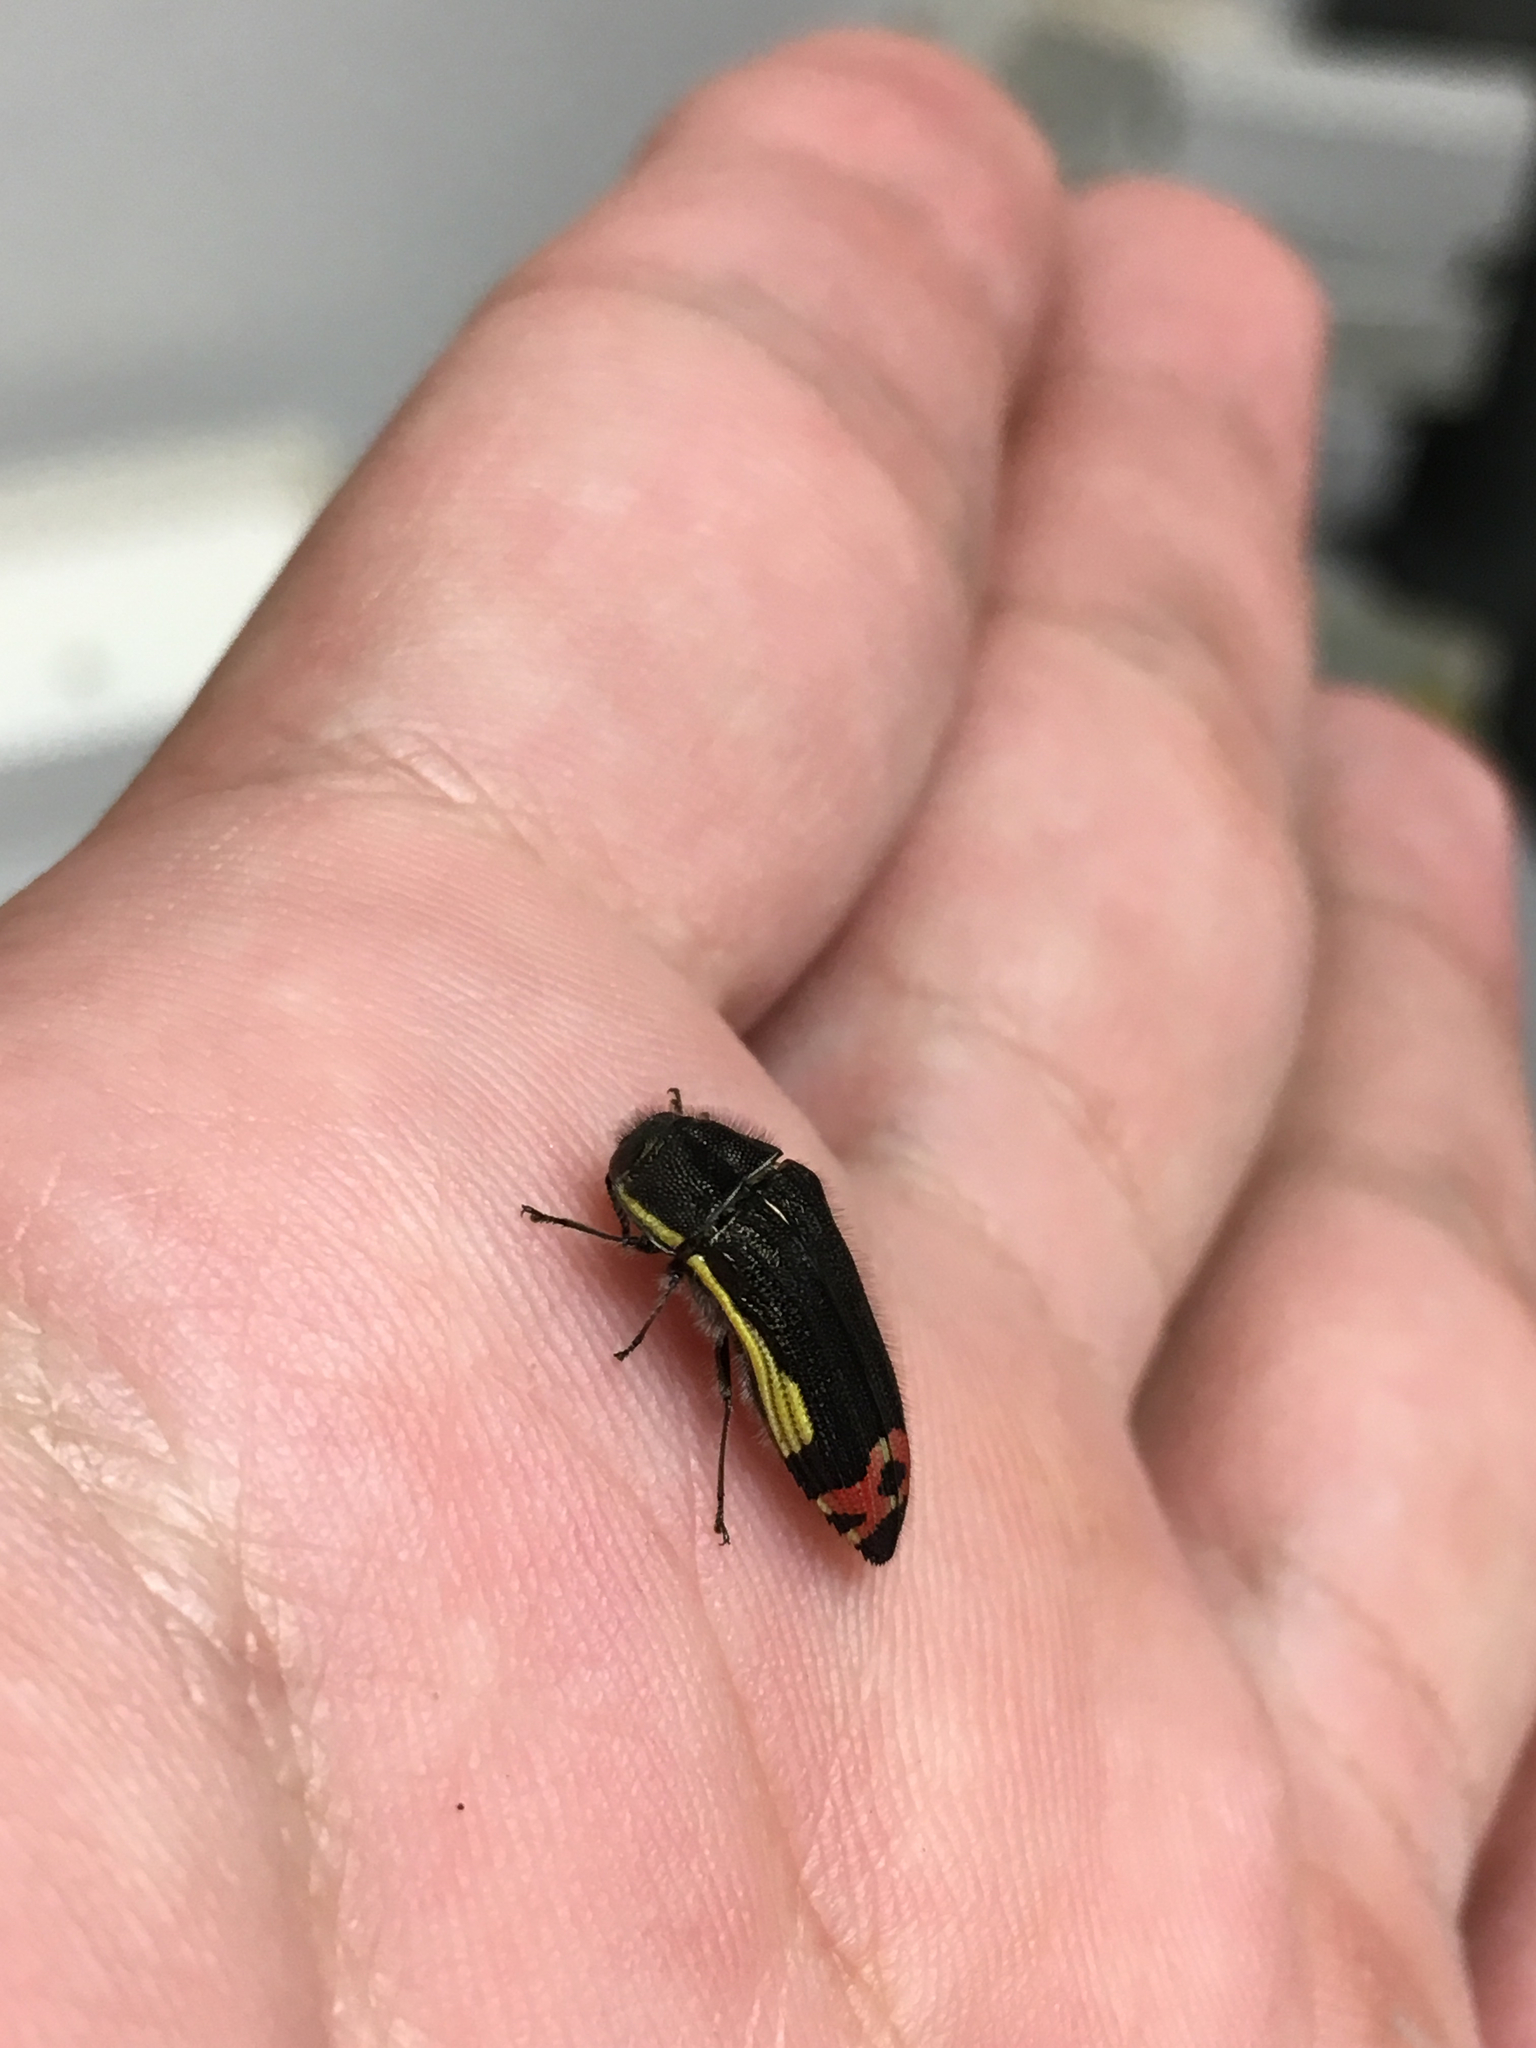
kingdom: Animalia
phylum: Arthropoda
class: Insecta
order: Coleoptera
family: Buprestidae
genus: Acmaeodera
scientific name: Acmaeodera flavomarginata
